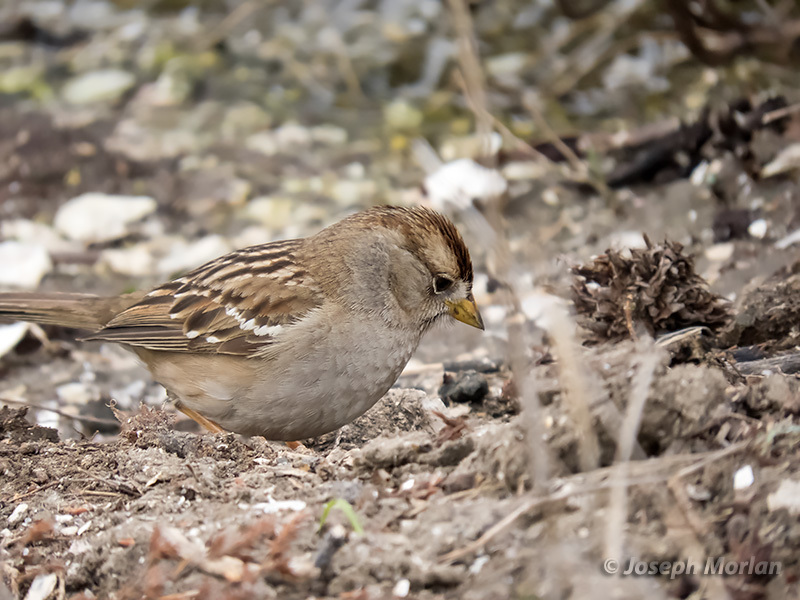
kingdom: Animalia
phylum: Chordata
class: Aves
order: Passeriformes
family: Passerellidae
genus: Zonotrichia
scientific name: Zonotrichia leucophrys
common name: White-crowned sparrow
